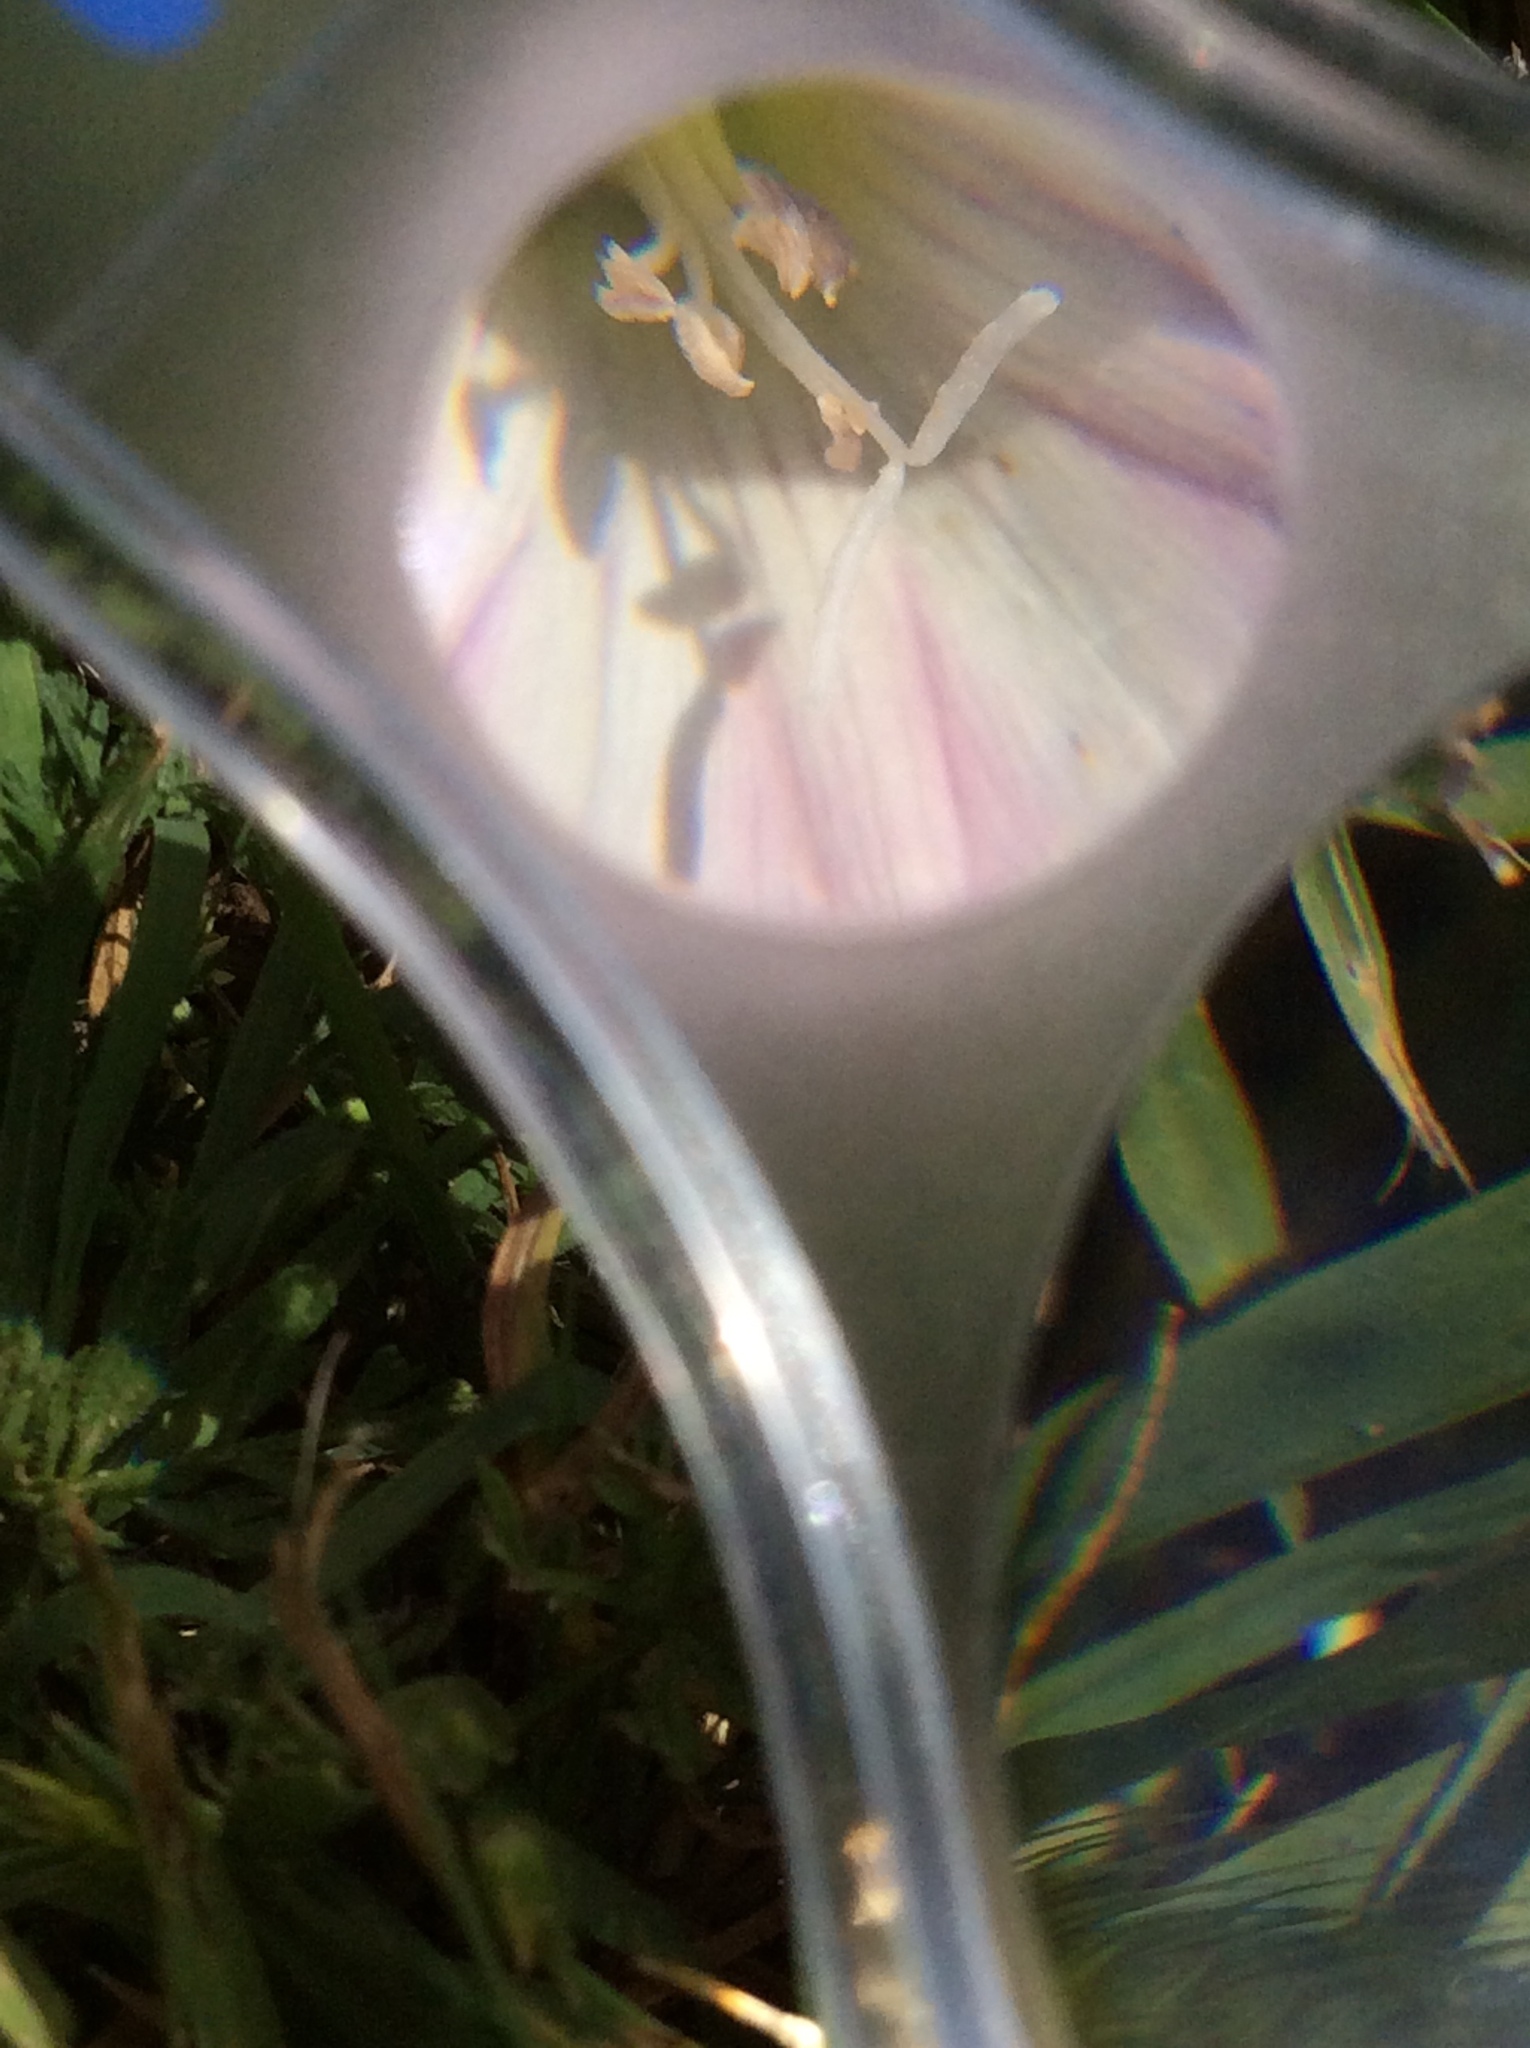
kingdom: Plantae
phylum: Tracheophyta
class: Magnoliopsida
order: Solanales
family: Convolvulaceae
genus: Convolvulus
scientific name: Convolvulus arvensis
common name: Field bindweed
